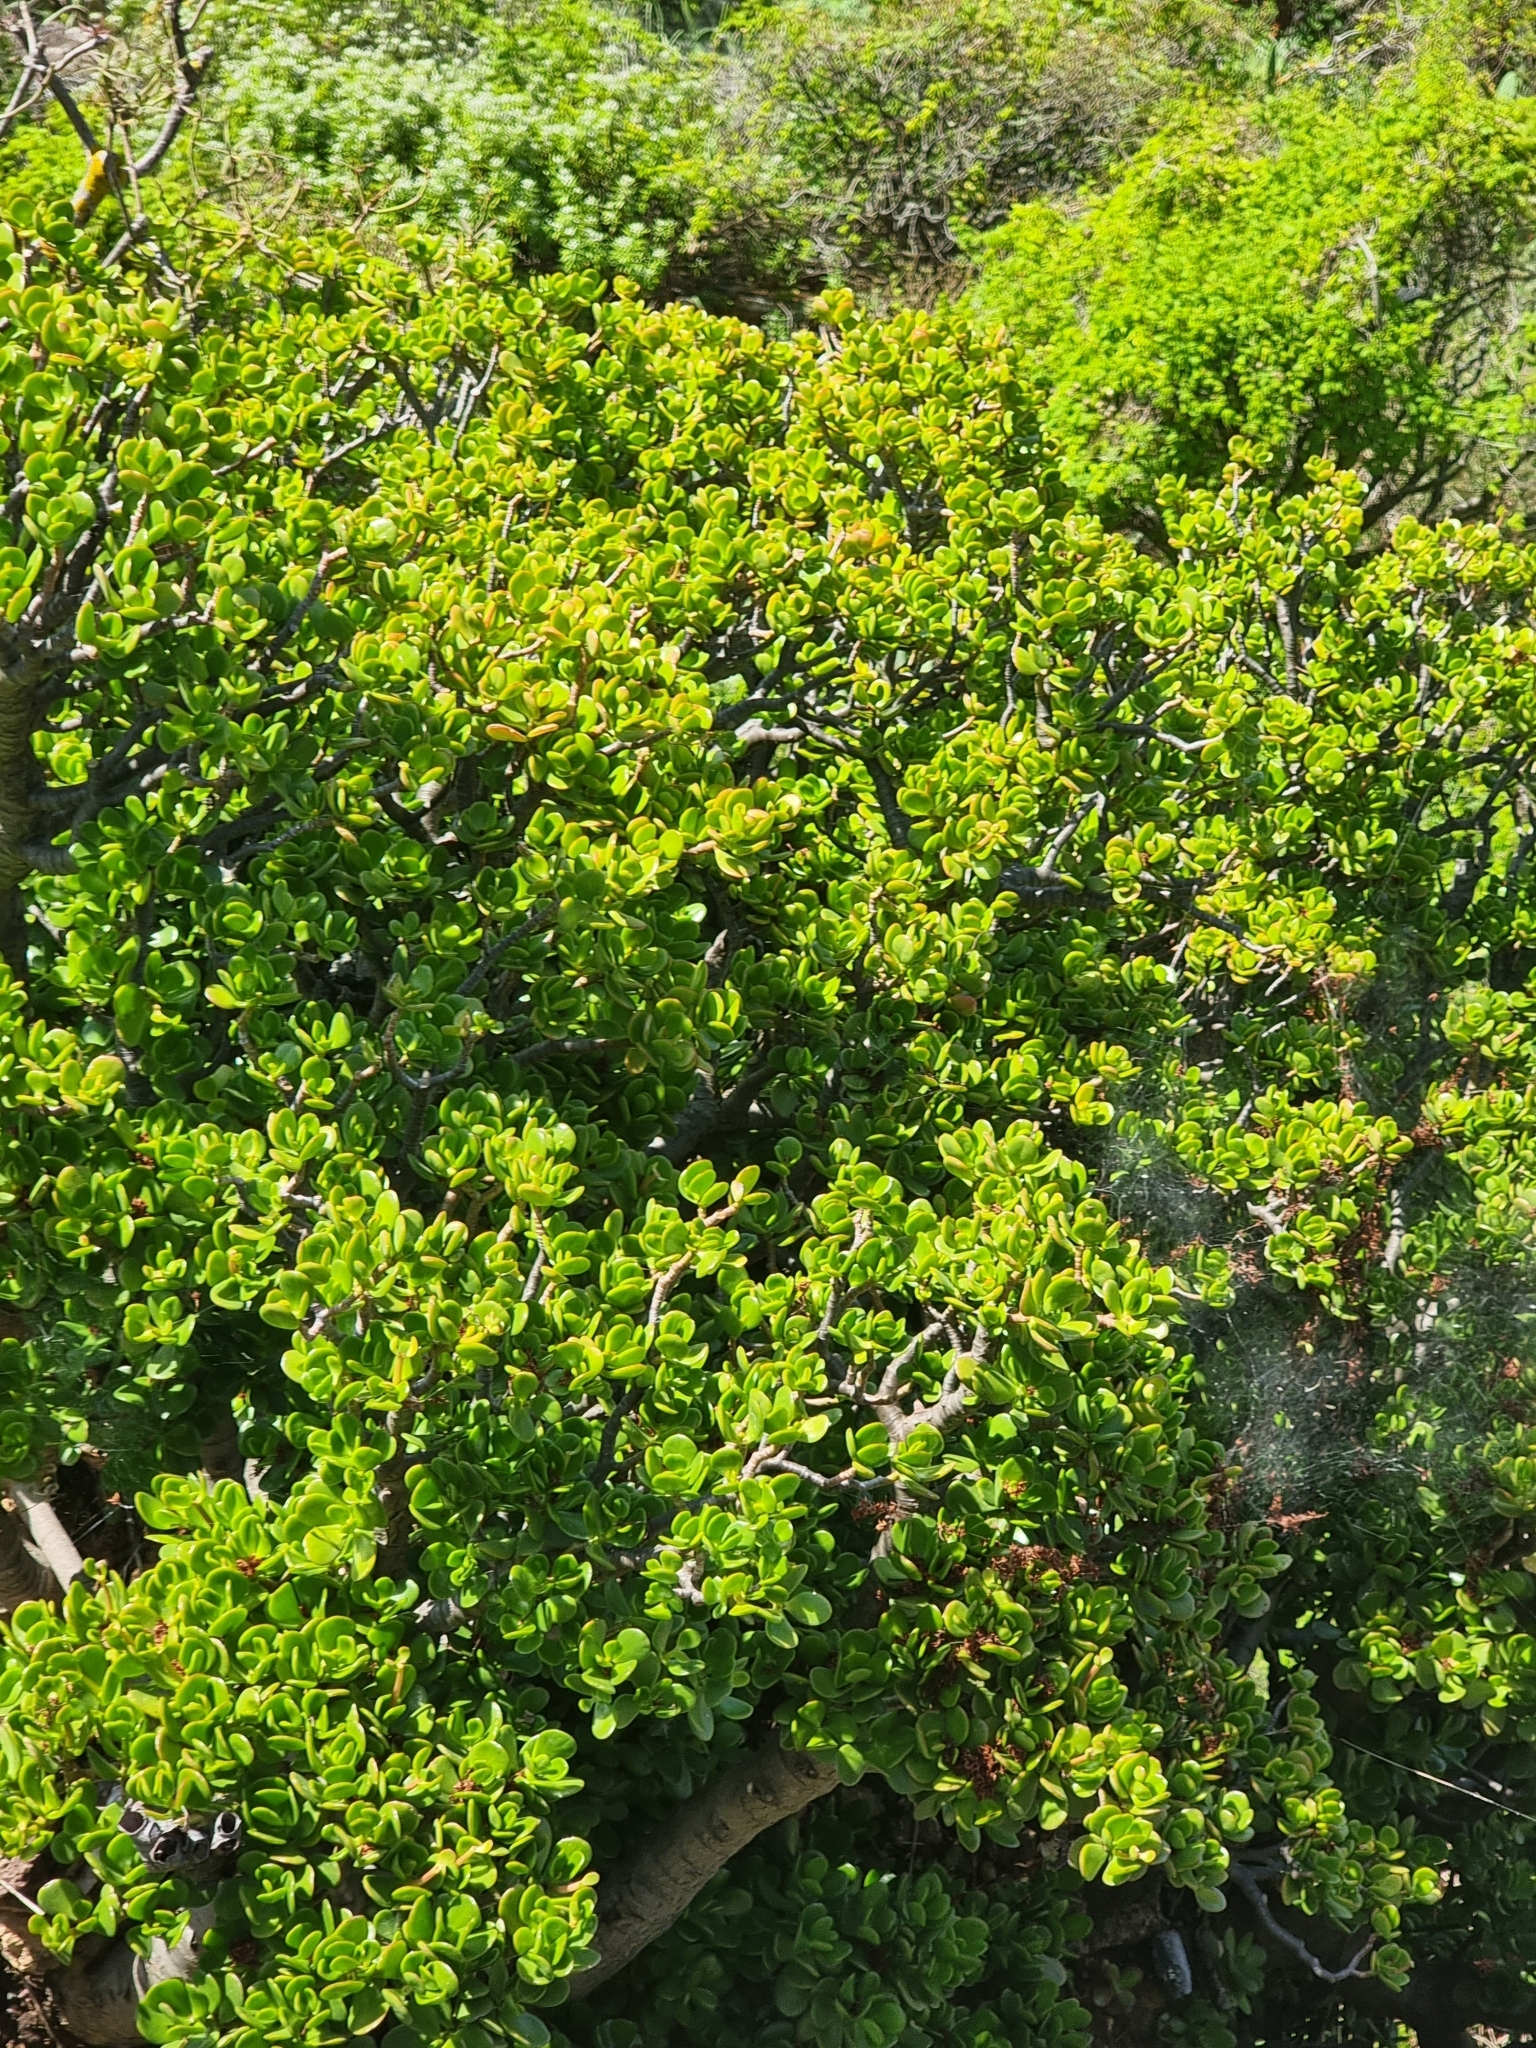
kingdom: Plantae
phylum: Tracheophyta
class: Magnoliopsida
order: Saxifragales
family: Crassulaceae
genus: Crassula
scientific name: Crassula ovata
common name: Jade plant
